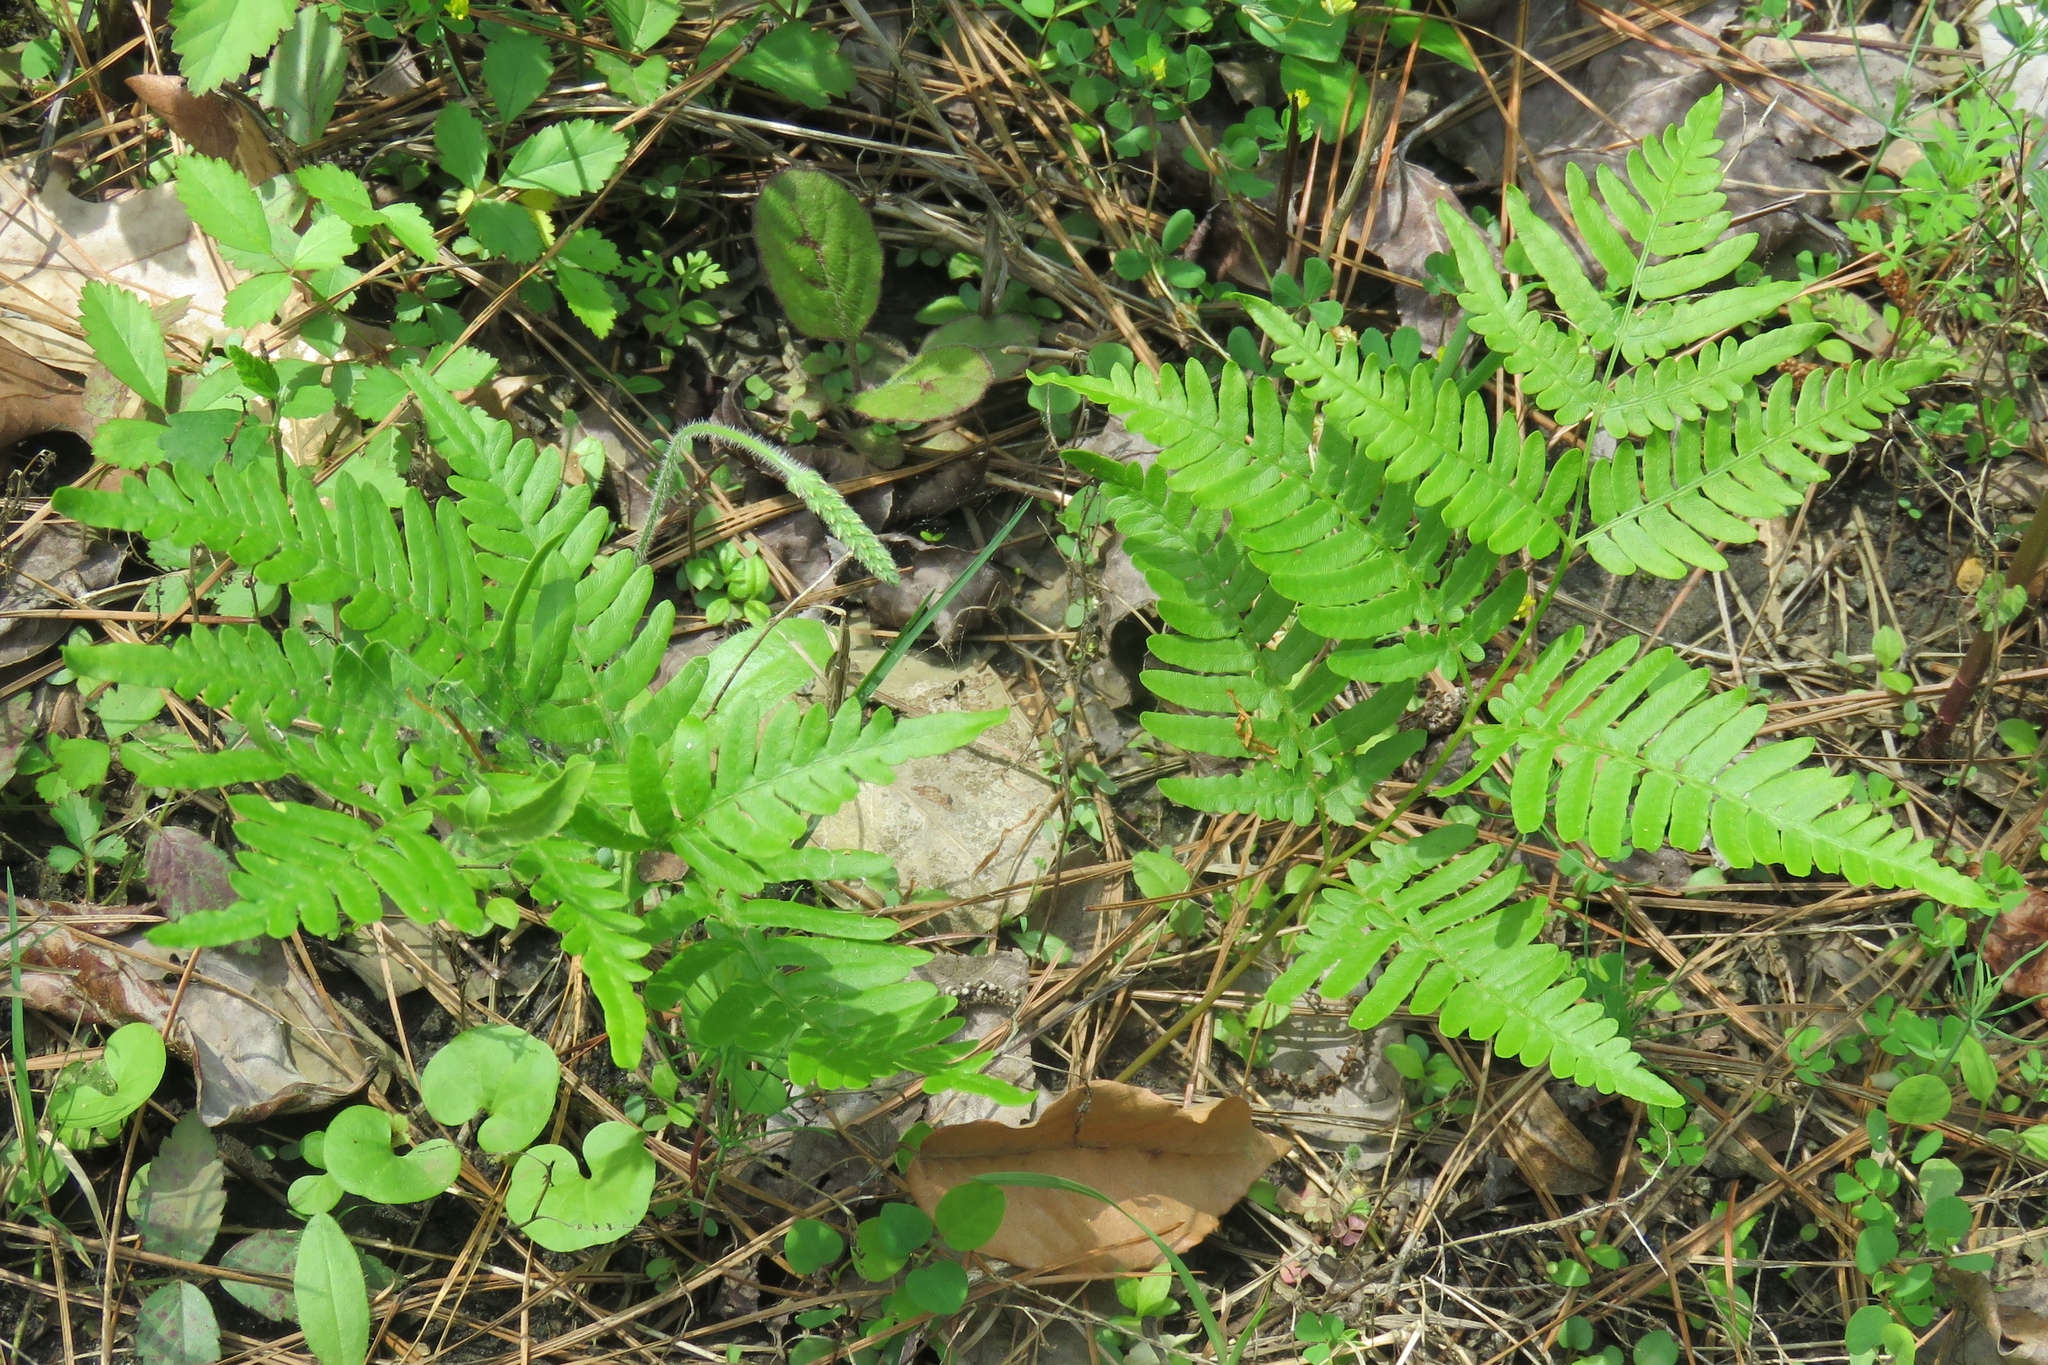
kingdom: Plantae
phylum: Tracheophyta
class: Polypodiopsida
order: Polypodiales
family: Dennstaedtiaceae
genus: Pteridium
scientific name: Pteridium aquilinum
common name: Bracken
